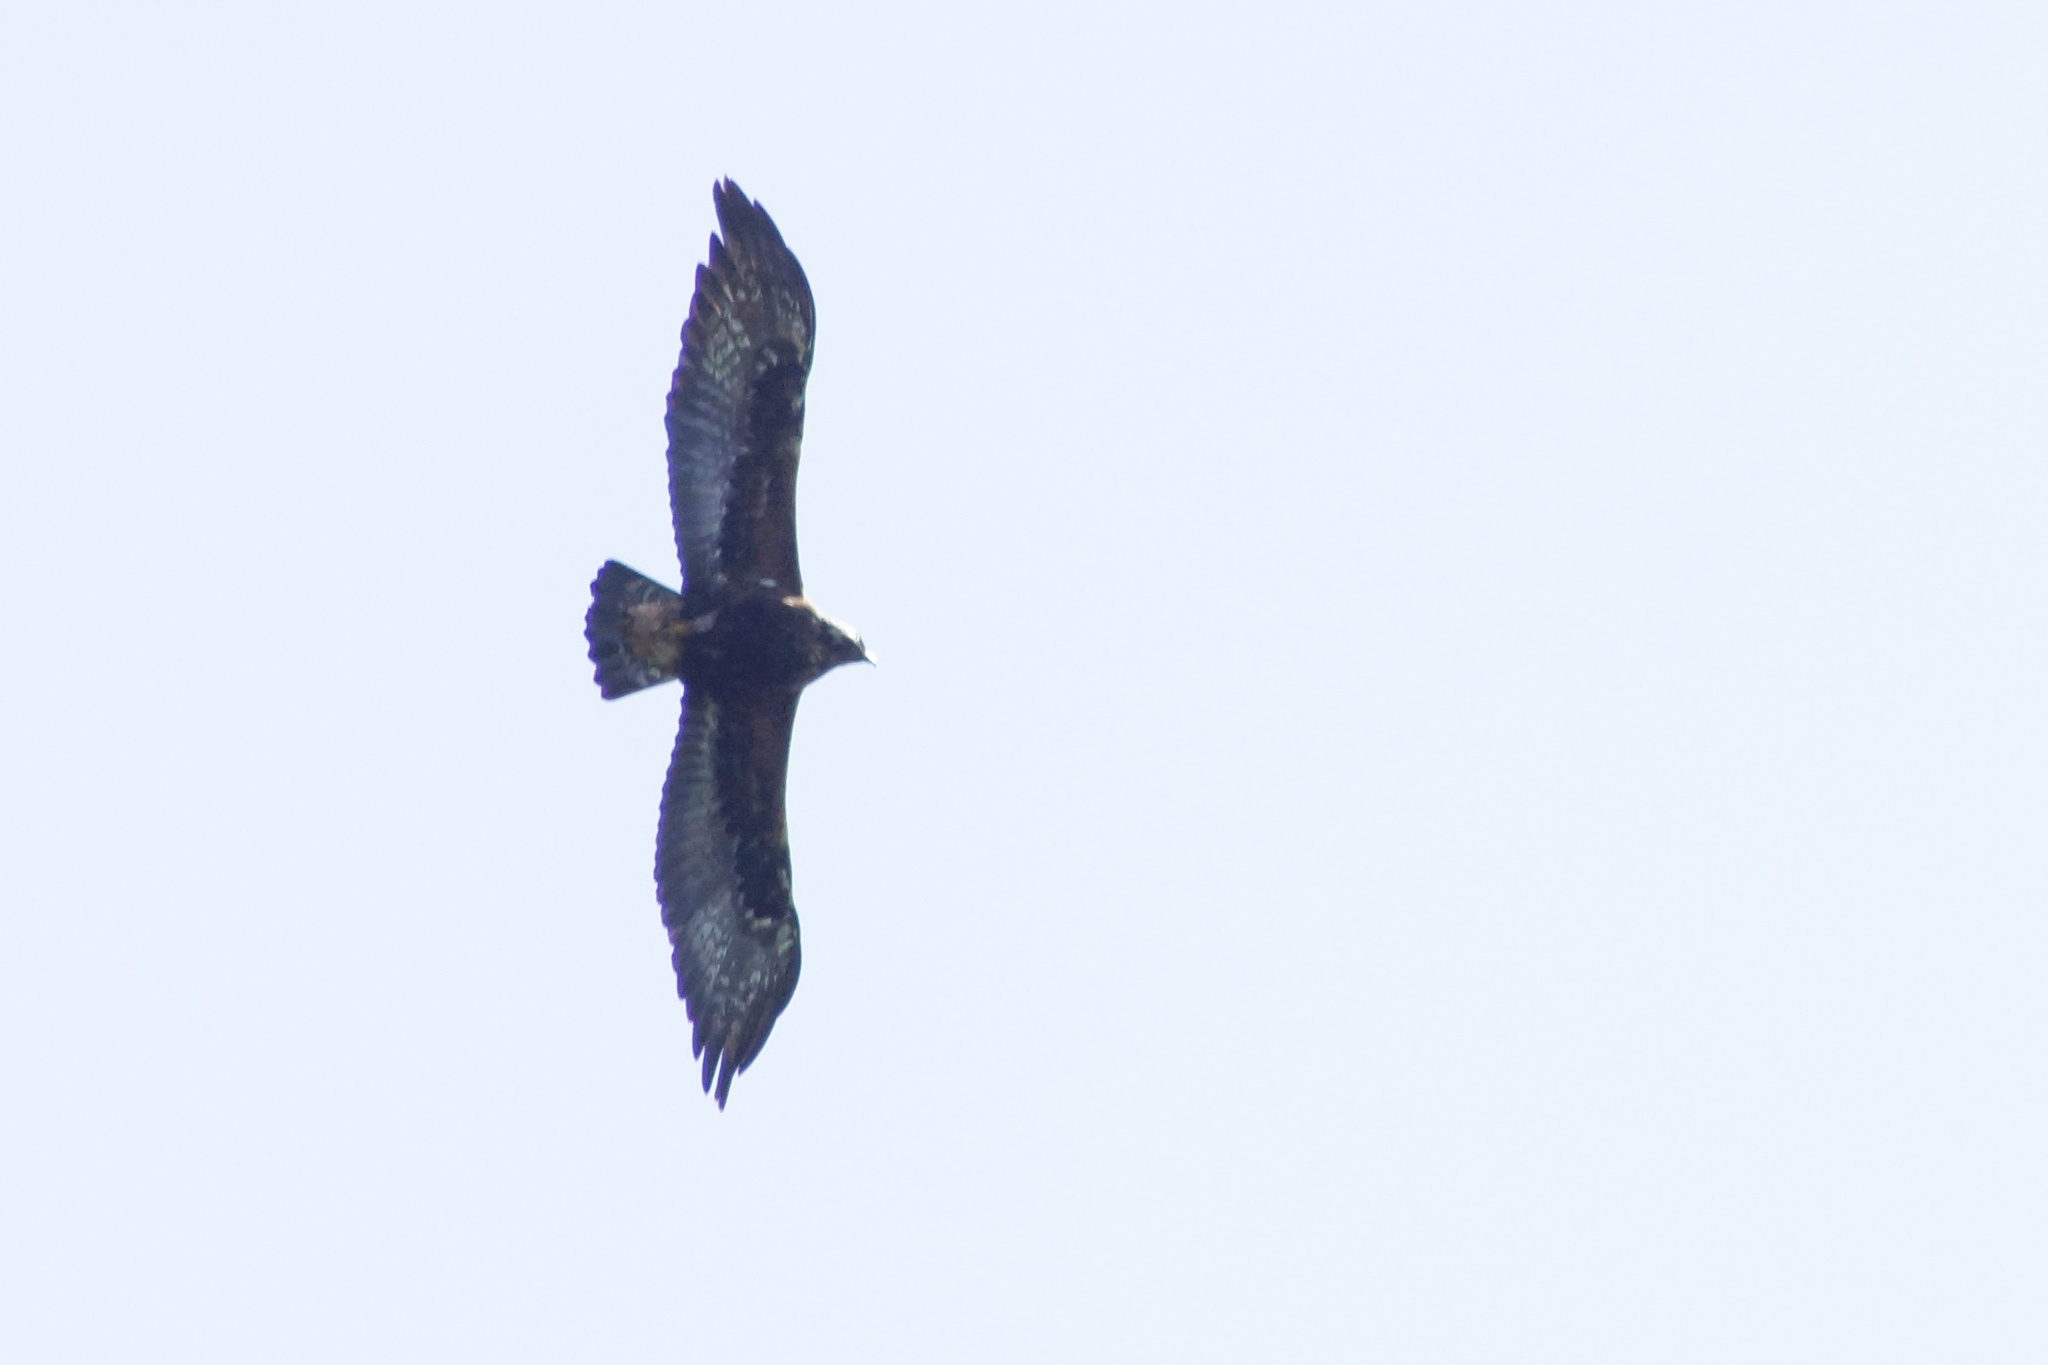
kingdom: Animalia
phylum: Chordata
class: Aves
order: Accipitriformes
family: Accipitridae
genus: Aquila
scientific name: Aquila chrysaetos
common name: Golden eagle
